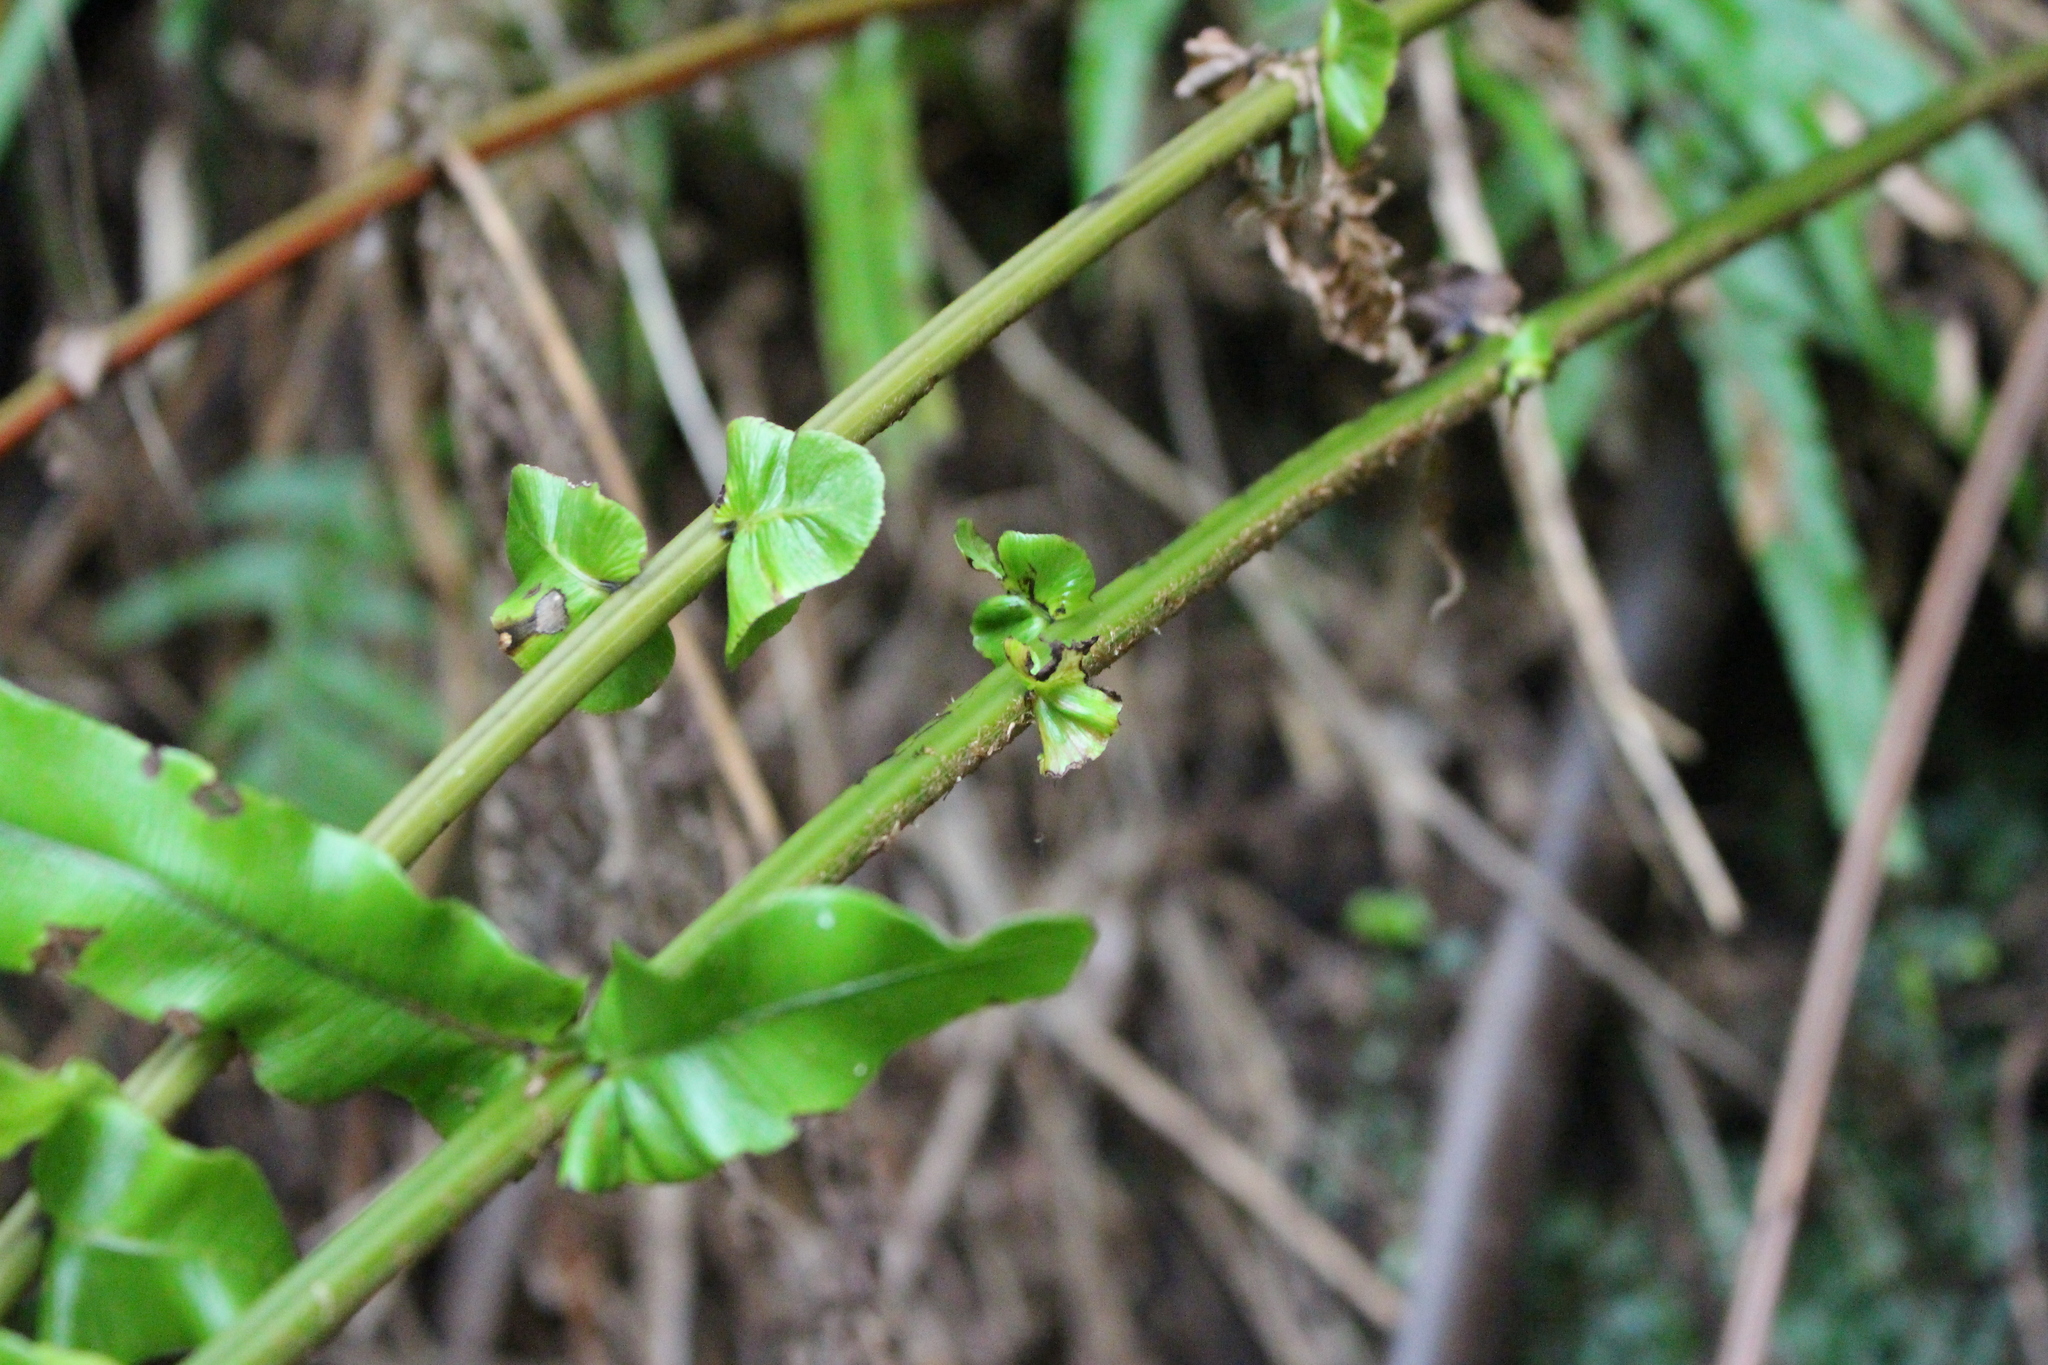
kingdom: Plantae
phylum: Tracheophyta
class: Polypodiopsida
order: Polypodiales
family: Blechnaceae
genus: Parablechnum
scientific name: Parablechnum novae-zelandiae
